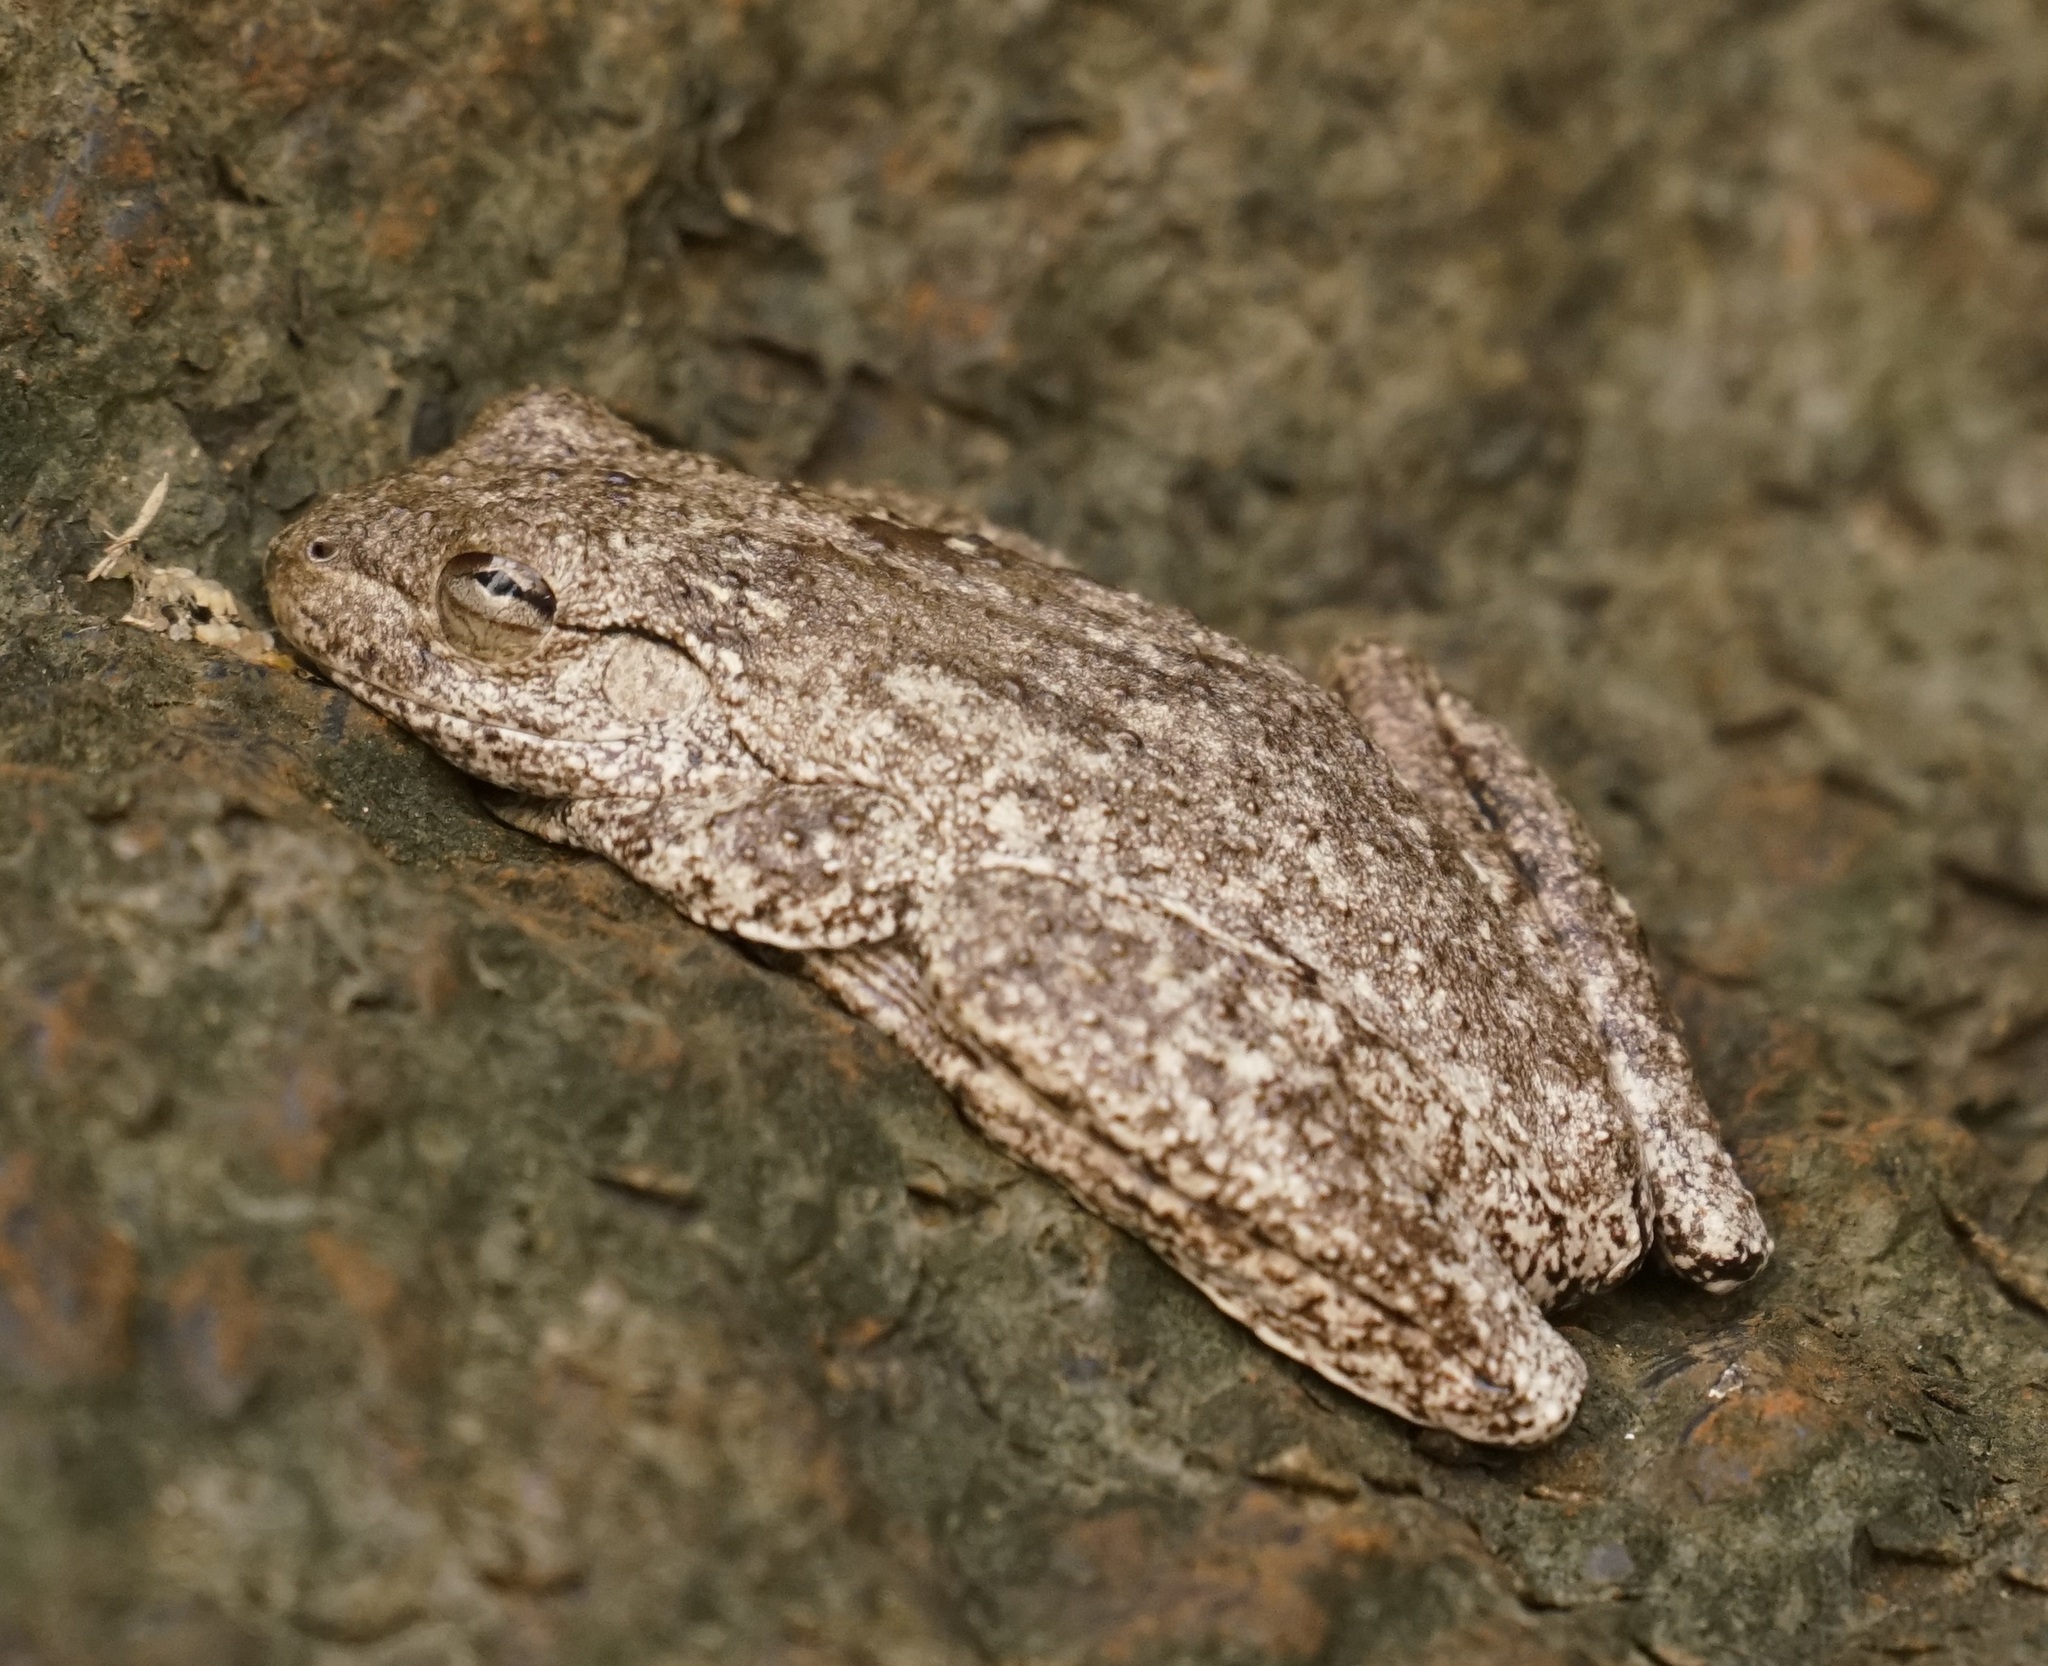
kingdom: Animalia
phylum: Chordata
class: Amphibia
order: Anura
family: Pelodryadidae
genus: Litoria
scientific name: Litoria rothii
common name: Roth’s tree frog
